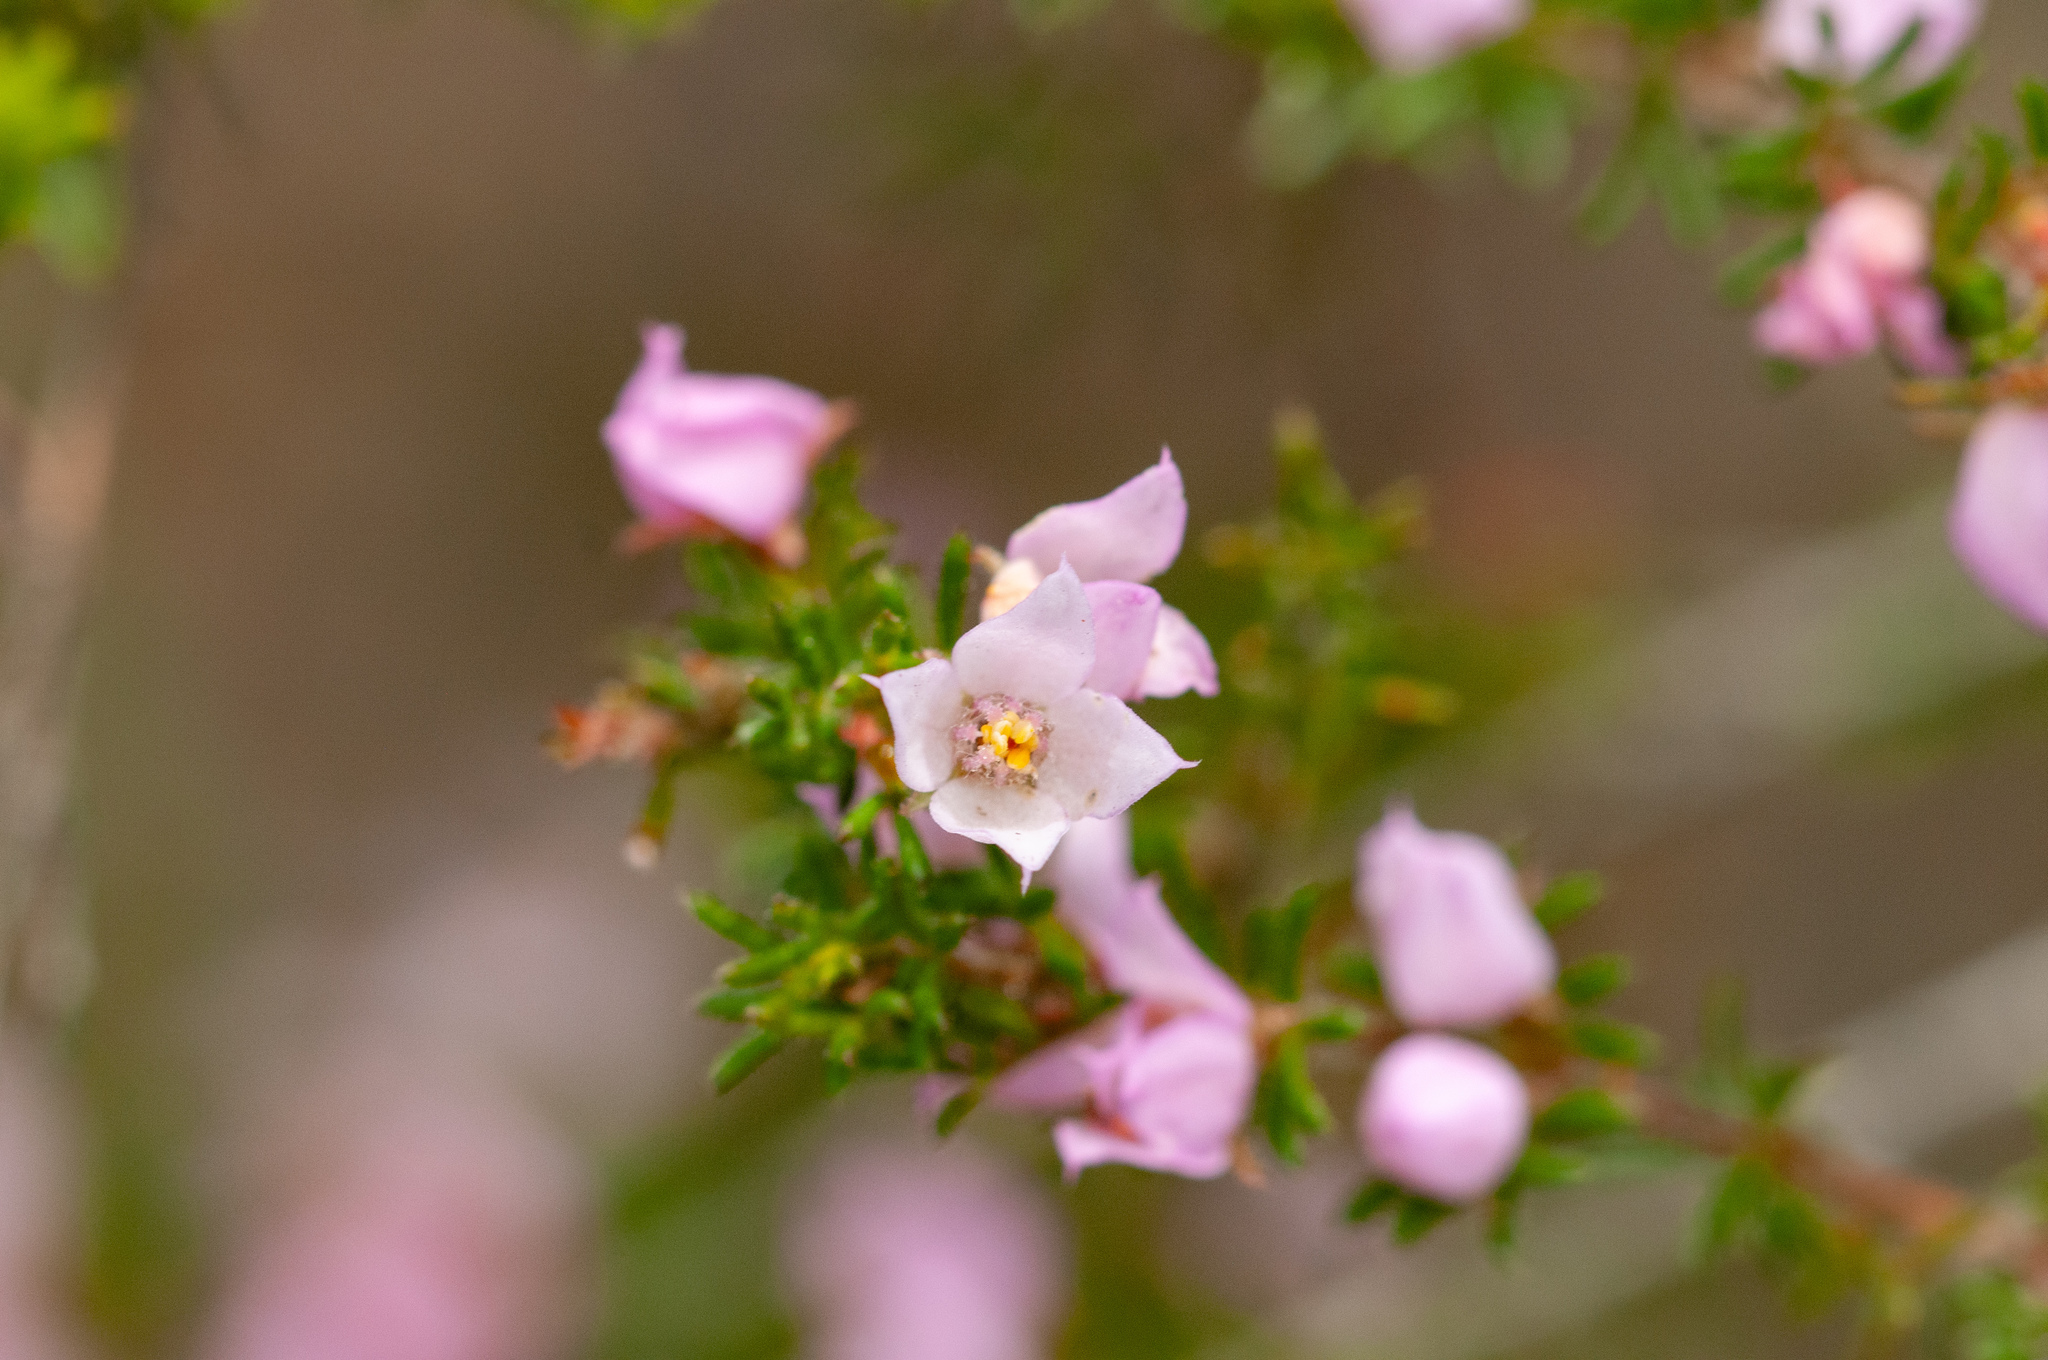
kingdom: Plantae
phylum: Tracheophyta
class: Magnoliopsida
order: Sapindales
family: Rutaceae
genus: Boronia
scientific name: Boronia pilosa
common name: Hairy boronia
